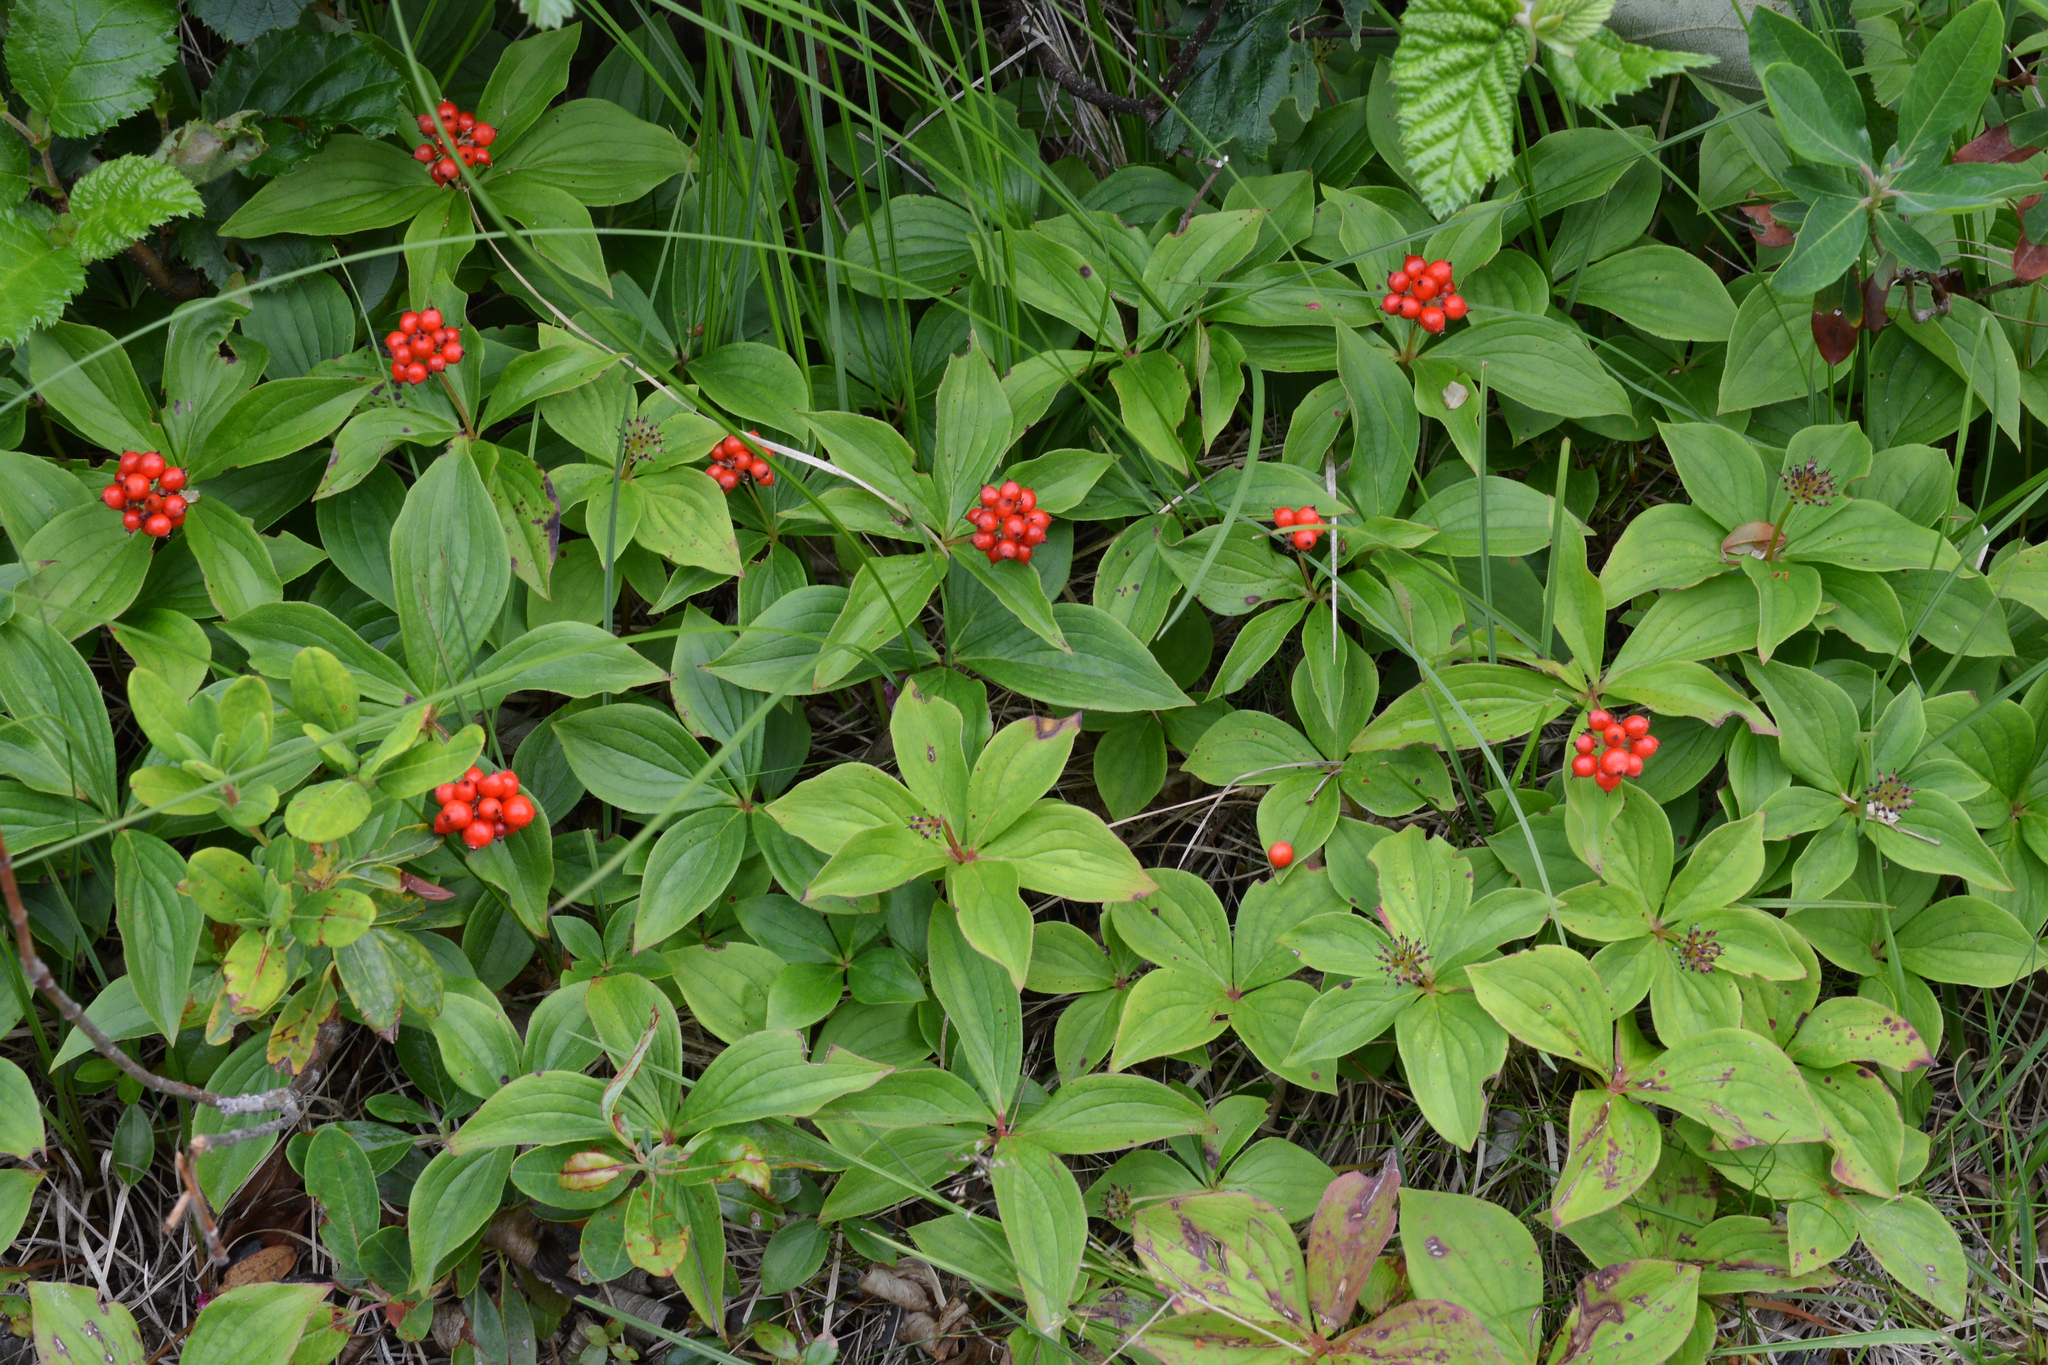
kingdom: Plantae
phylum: Tracheophyta
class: Magnoliopsida
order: Cornales
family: Cornaceae
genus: Cornus
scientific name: Cornus canadensis
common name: Creeping dogwood
